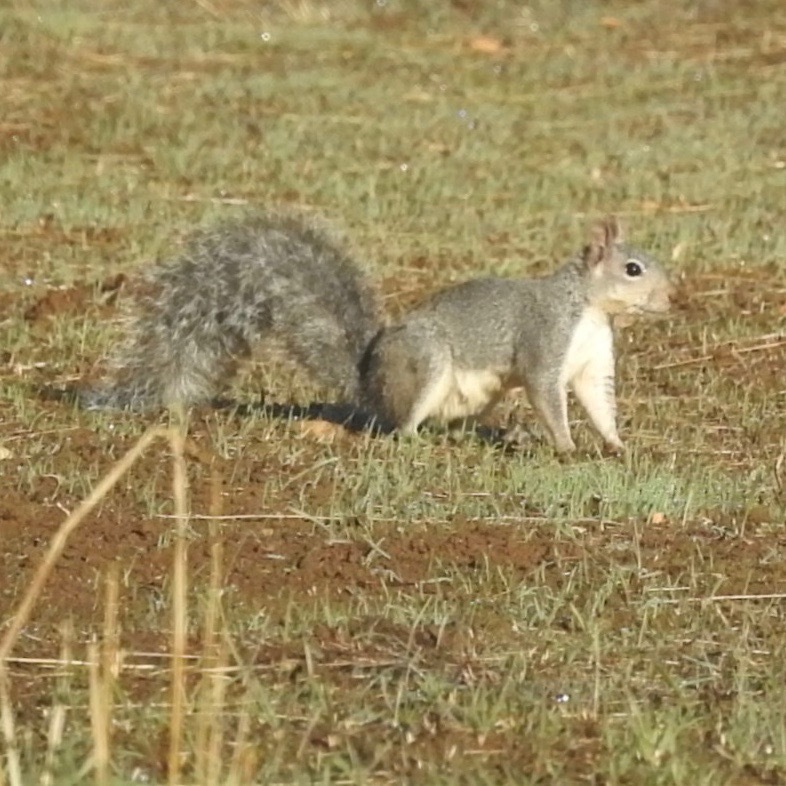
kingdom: Animalia
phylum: Chordata
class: Mammalia
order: Rodentia
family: Sciuridae
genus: Sciurus
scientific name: Sciurus griseus
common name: Western gray squirrel
